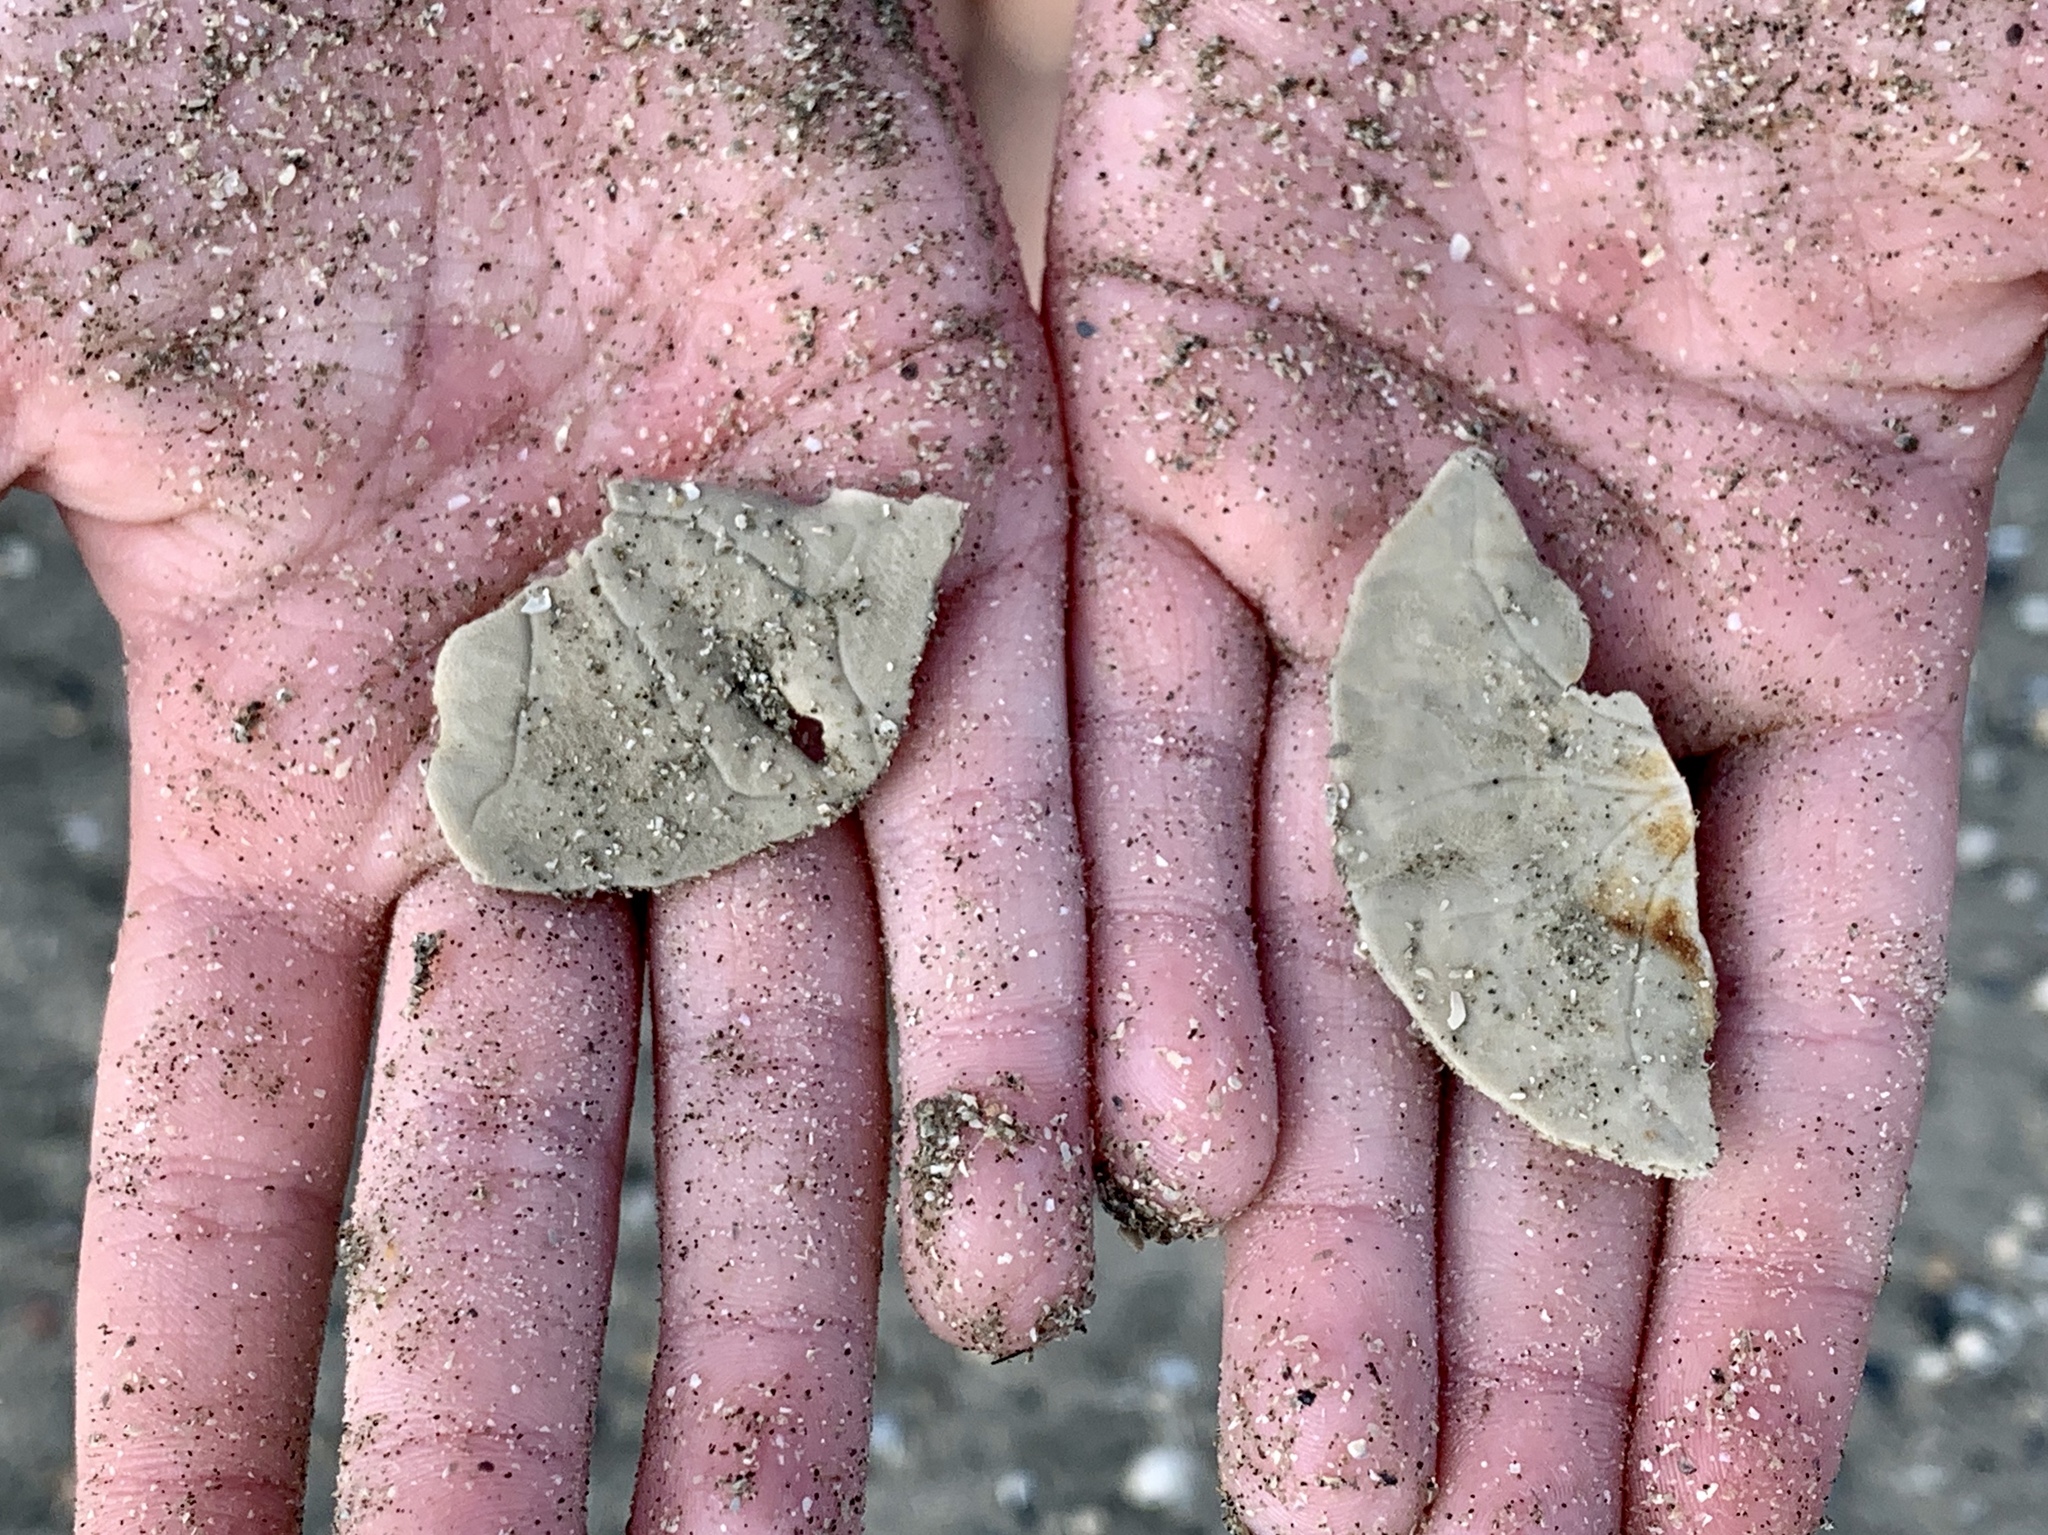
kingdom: Animalia
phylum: Echinodermata
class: Echinoidea
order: Echinolampadacea
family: Mellitidae
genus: Mellita
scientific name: Mellita quinquiesperforata
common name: Sand dollar
